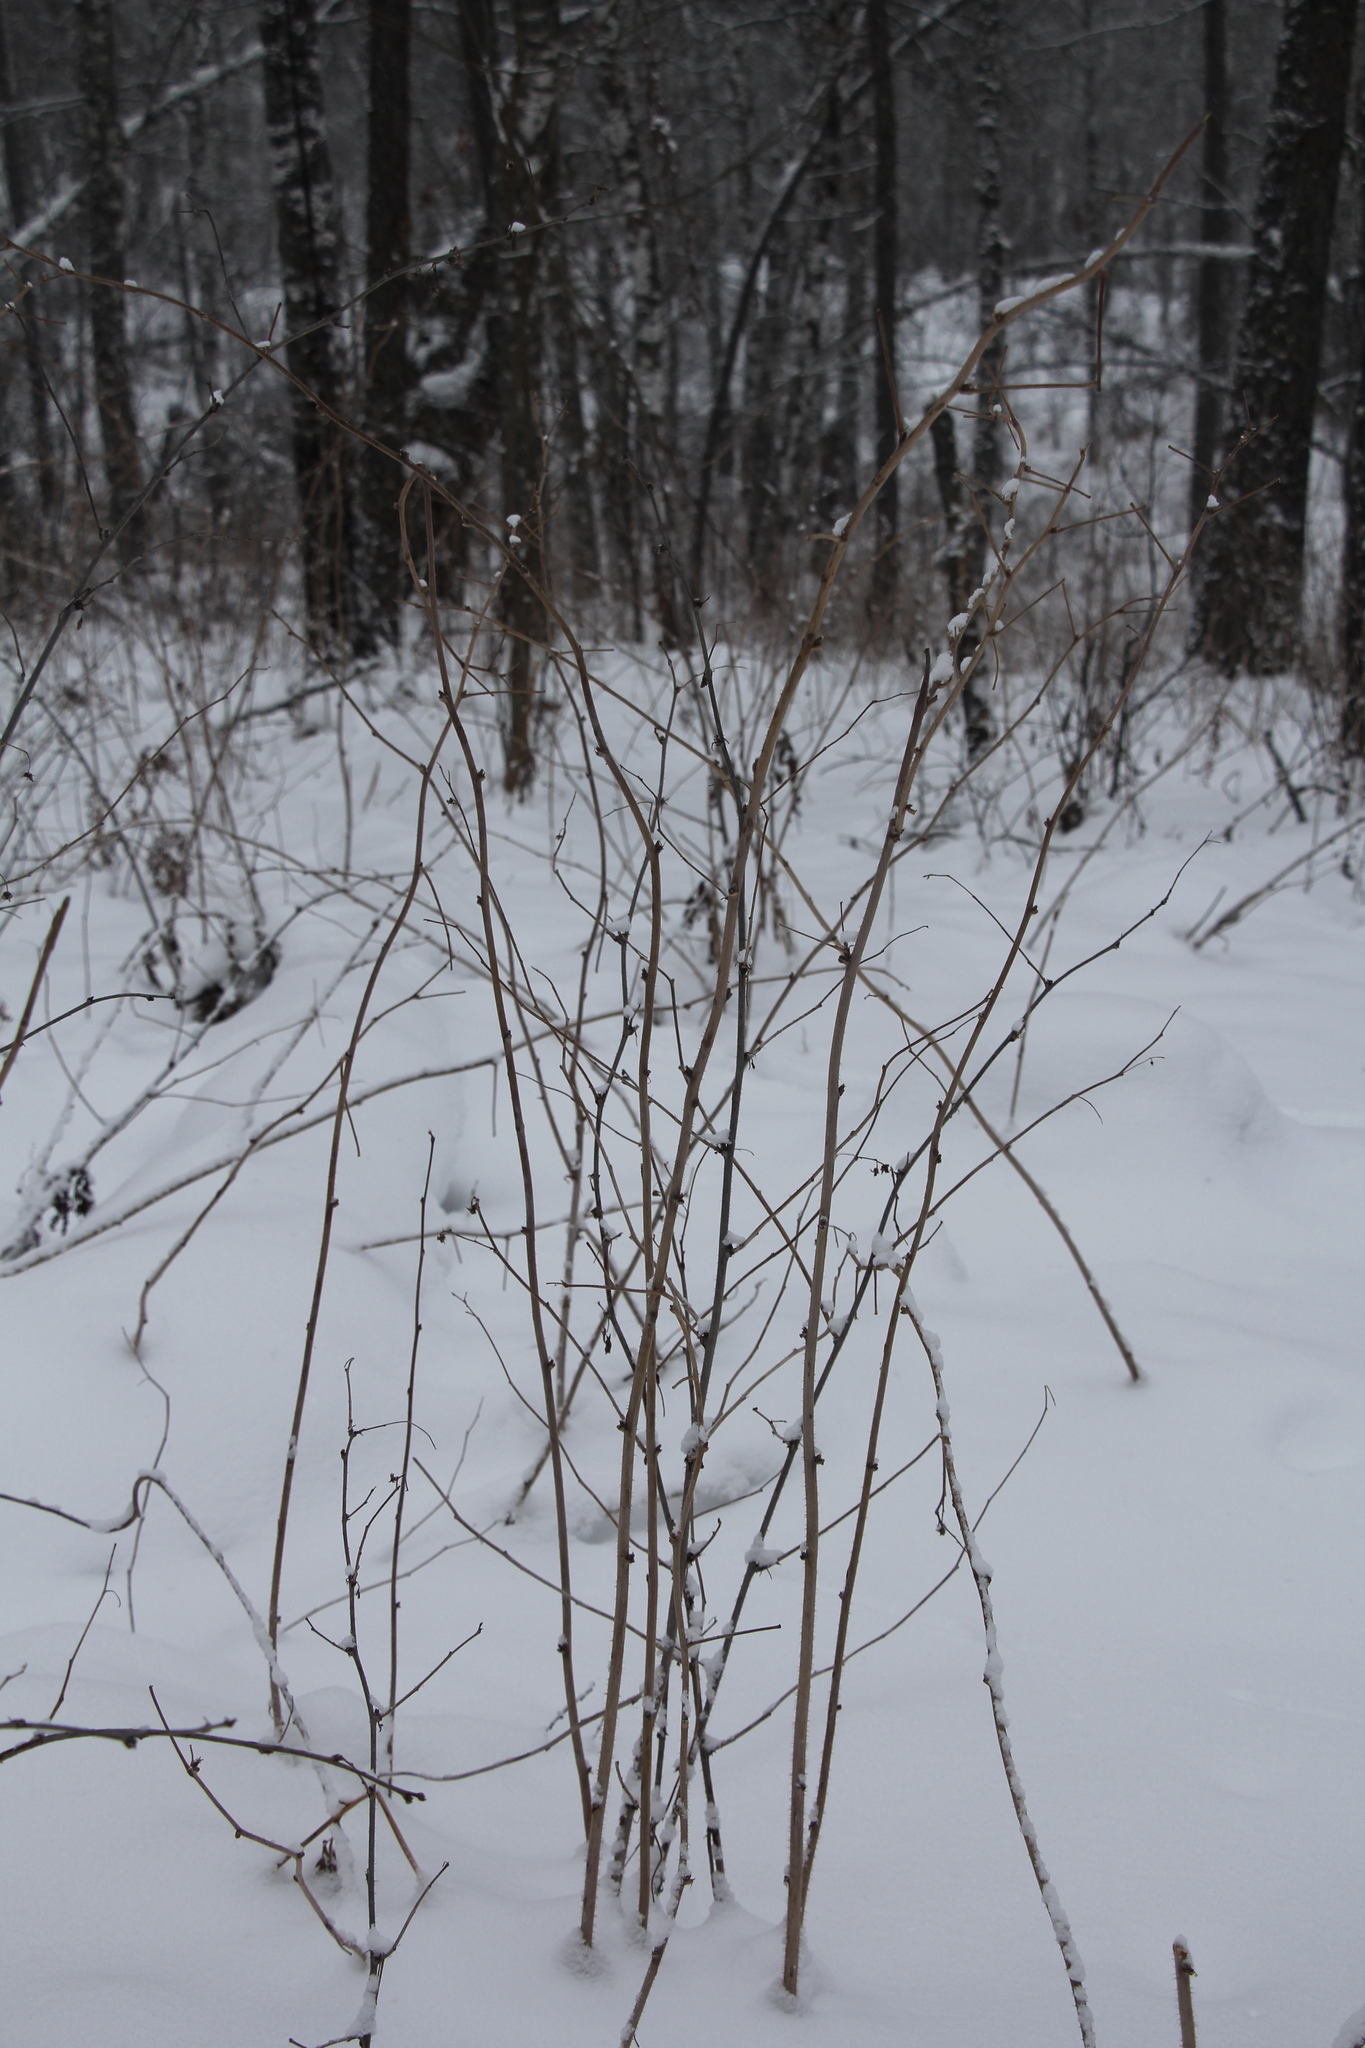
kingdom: Plantae
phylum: Tracheophyta
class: Magnoliopsida
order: Rosales
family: Rosaceae
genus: Rubus
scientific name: Rubus idaeus
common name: Raspberry
